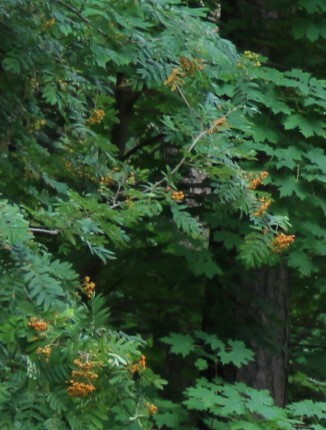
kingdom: Plantae
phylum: Tracheophyta
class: Magnoliopsida
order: Rosales
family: Rosaceae
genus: Sorbus
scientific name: Sorbus aucuparia
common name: Rowan
